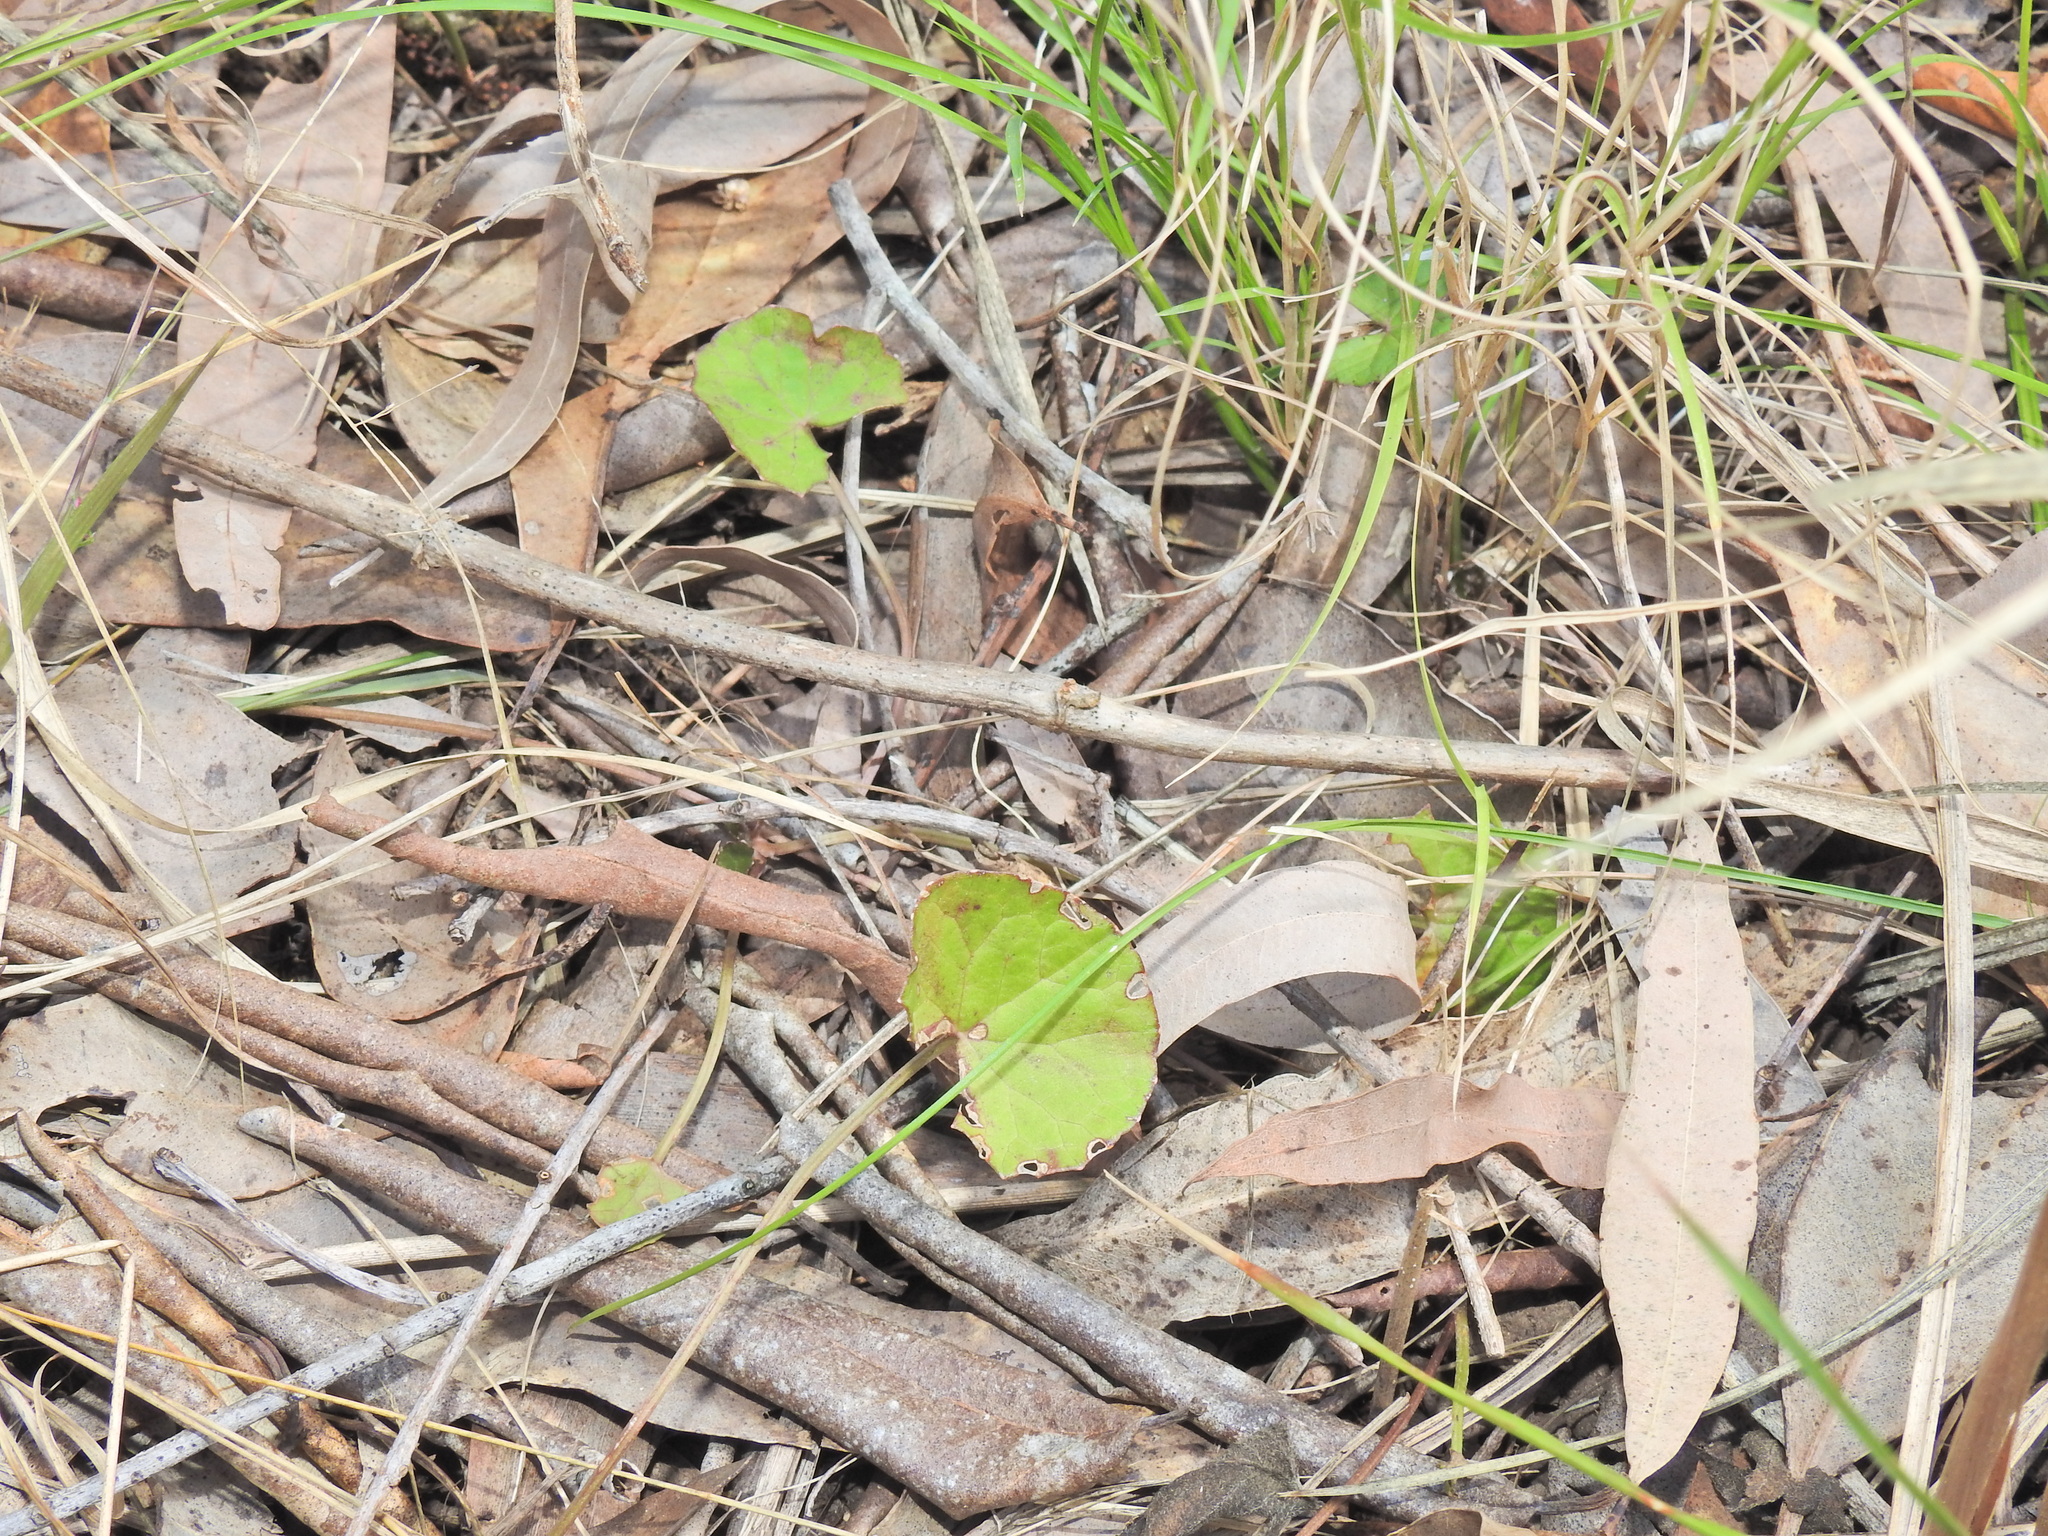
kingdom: Plantae
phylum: Tracheophyta
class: Magnoliopsida
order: Apiales
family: Apiaceae
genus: Centella
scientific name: Centella asiatica
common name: Spadeleaf
